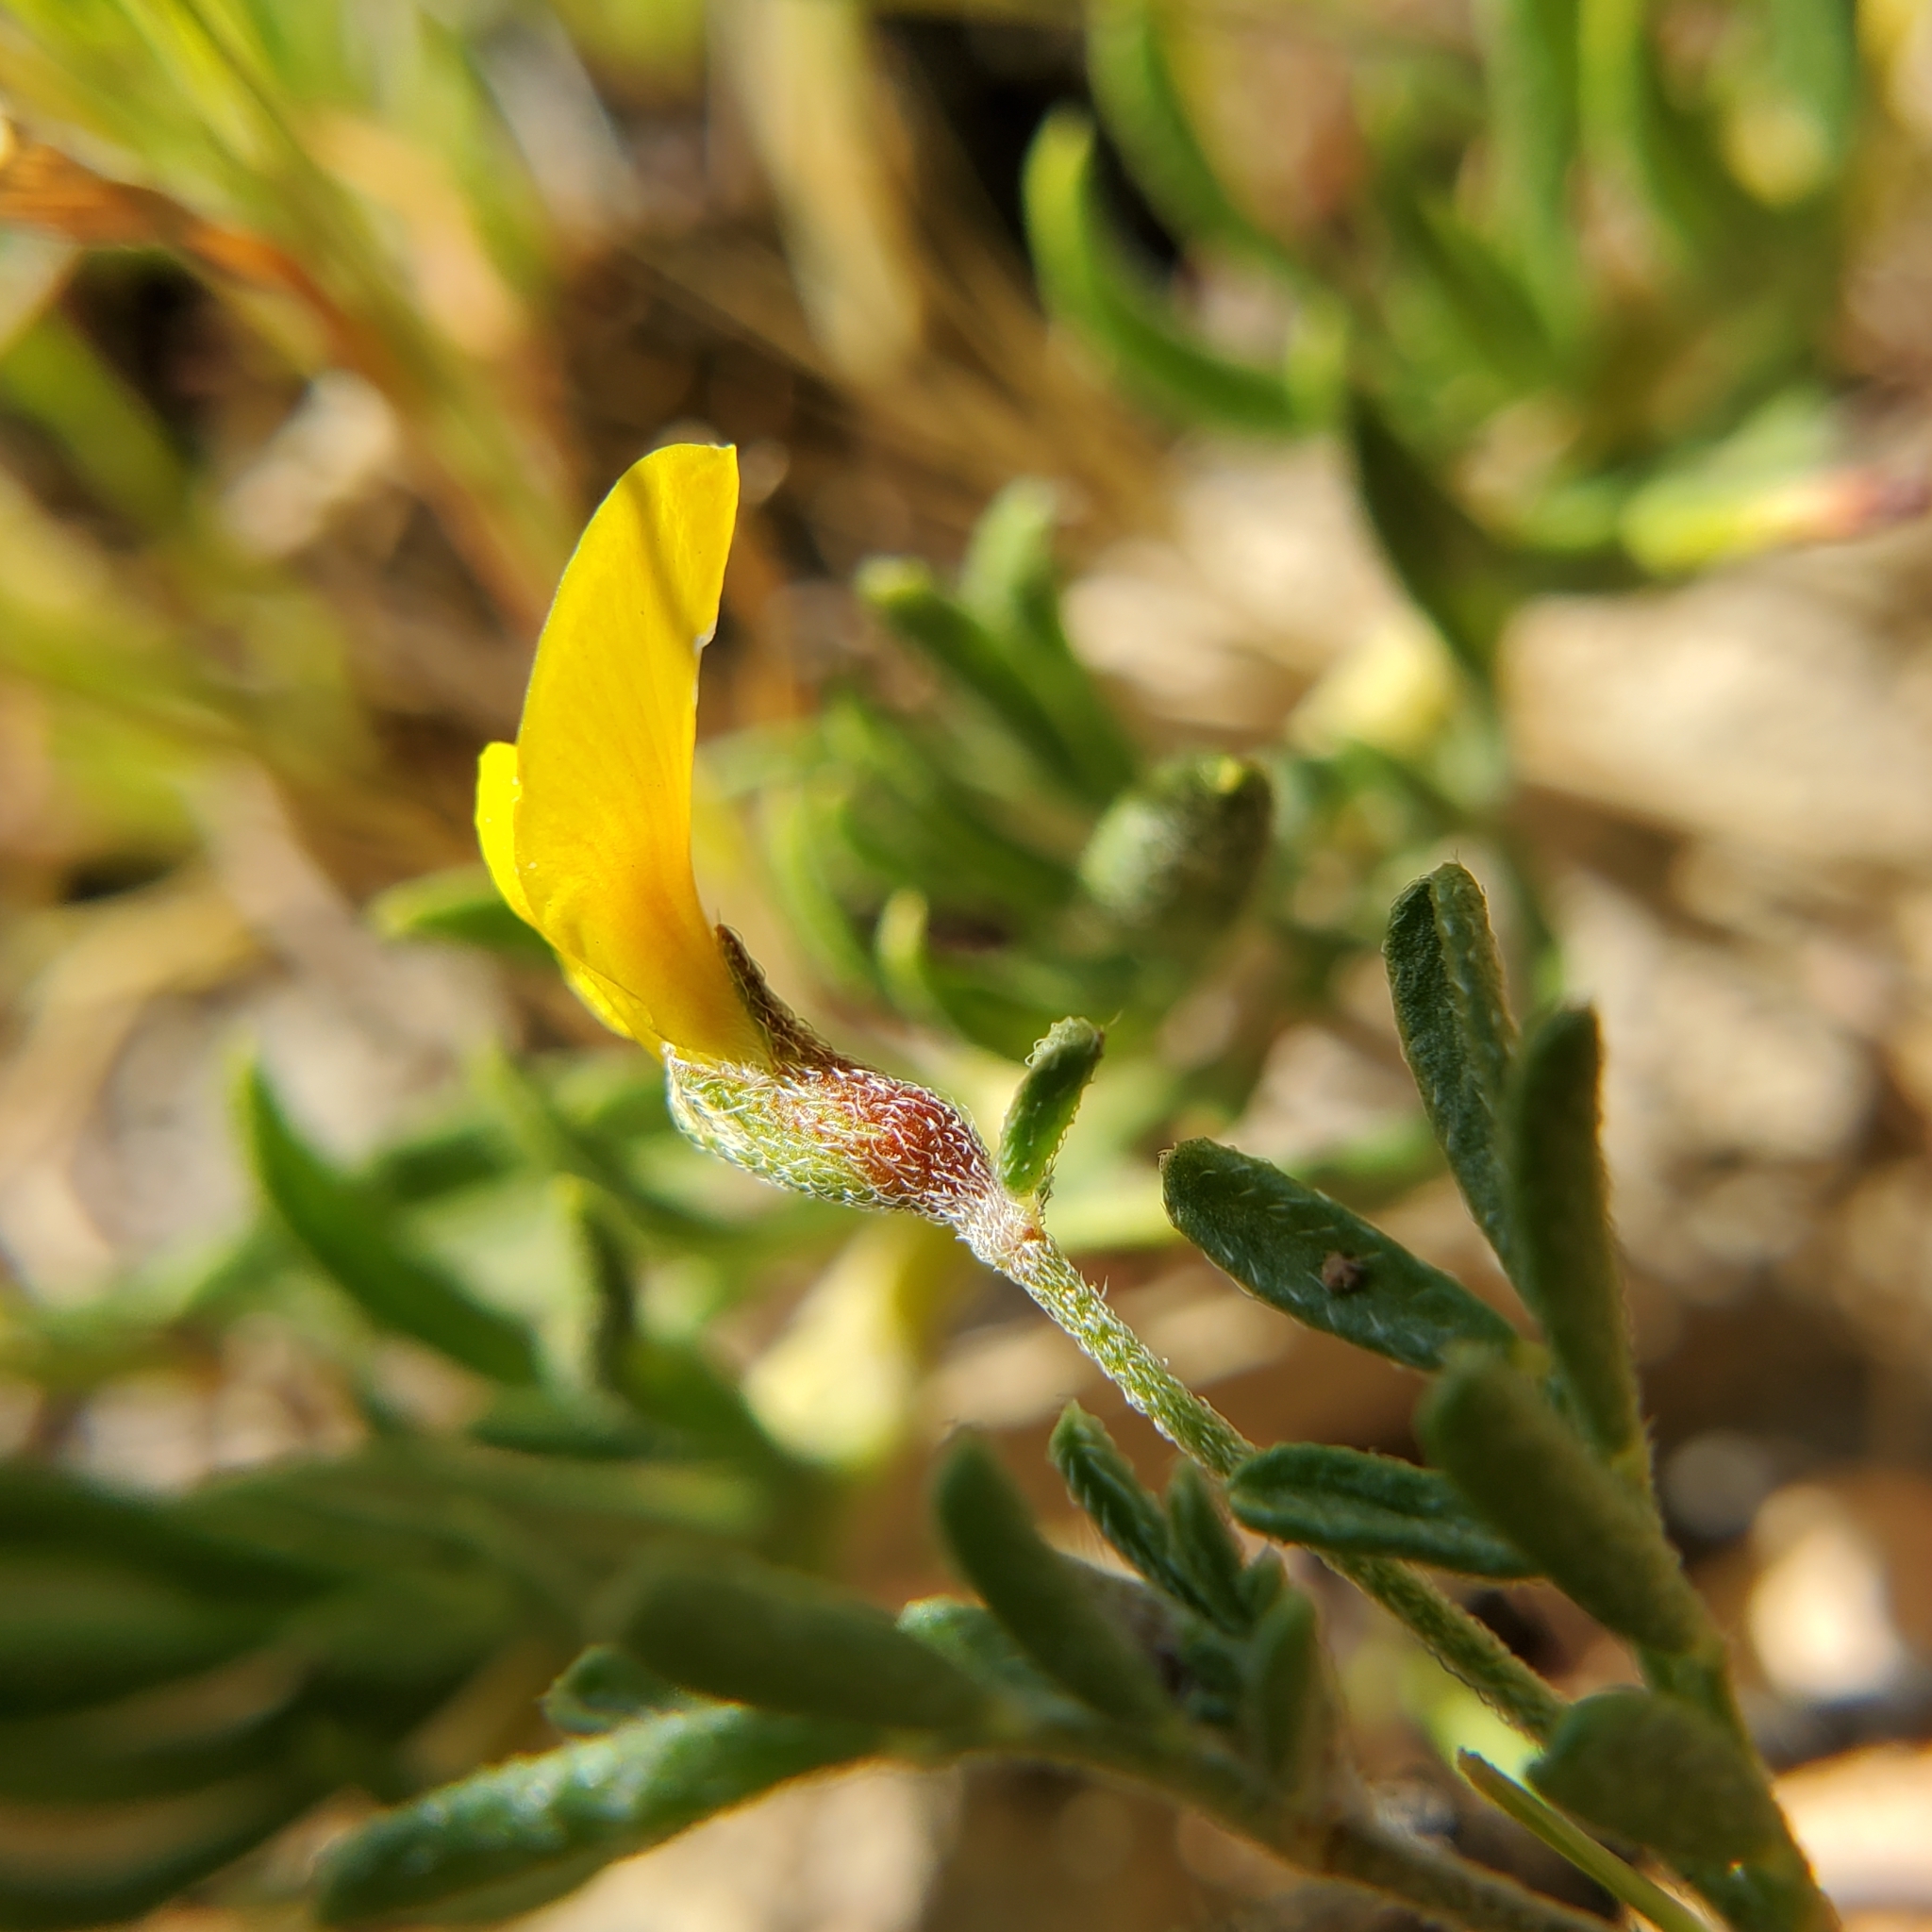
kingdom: Plantae
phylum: Tracheophyta
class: Magnoliopsida
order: Fabales
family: Fabaceae
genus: Acmispon
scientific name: Acmispon strigosus
